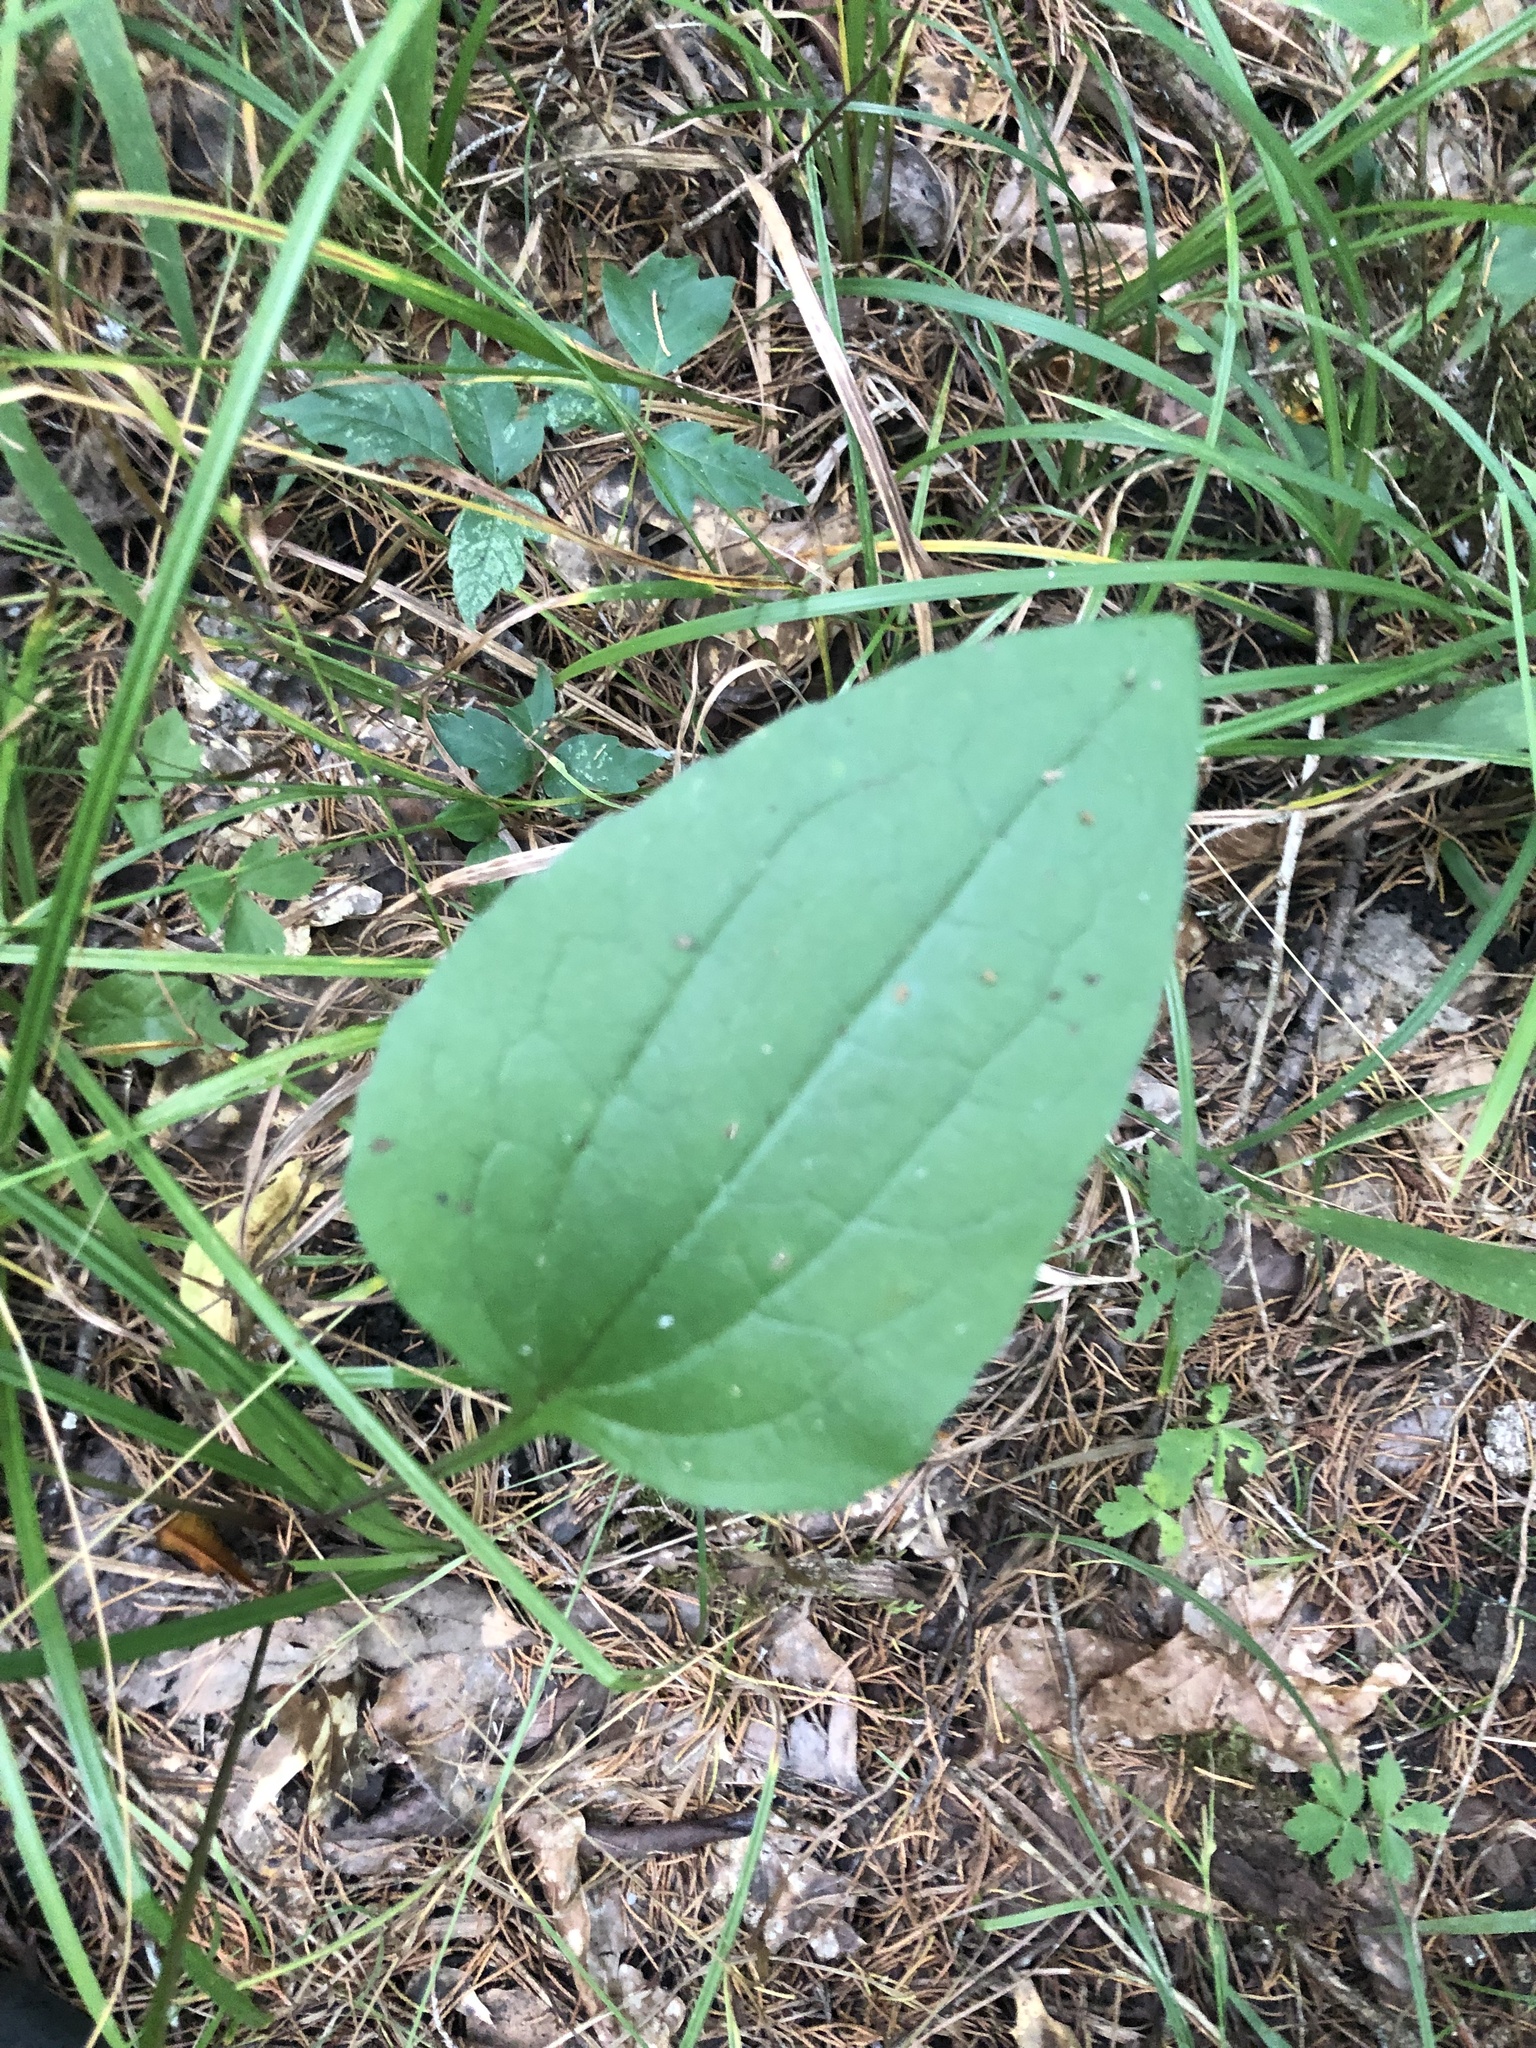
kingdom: Plantae
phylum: Tracheophyta
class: Magnoliopsida
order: Asterales
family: Asteraceae
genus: Echinacea
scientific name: Echinacea purpurea
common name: Broad-leaved purple coneflower
